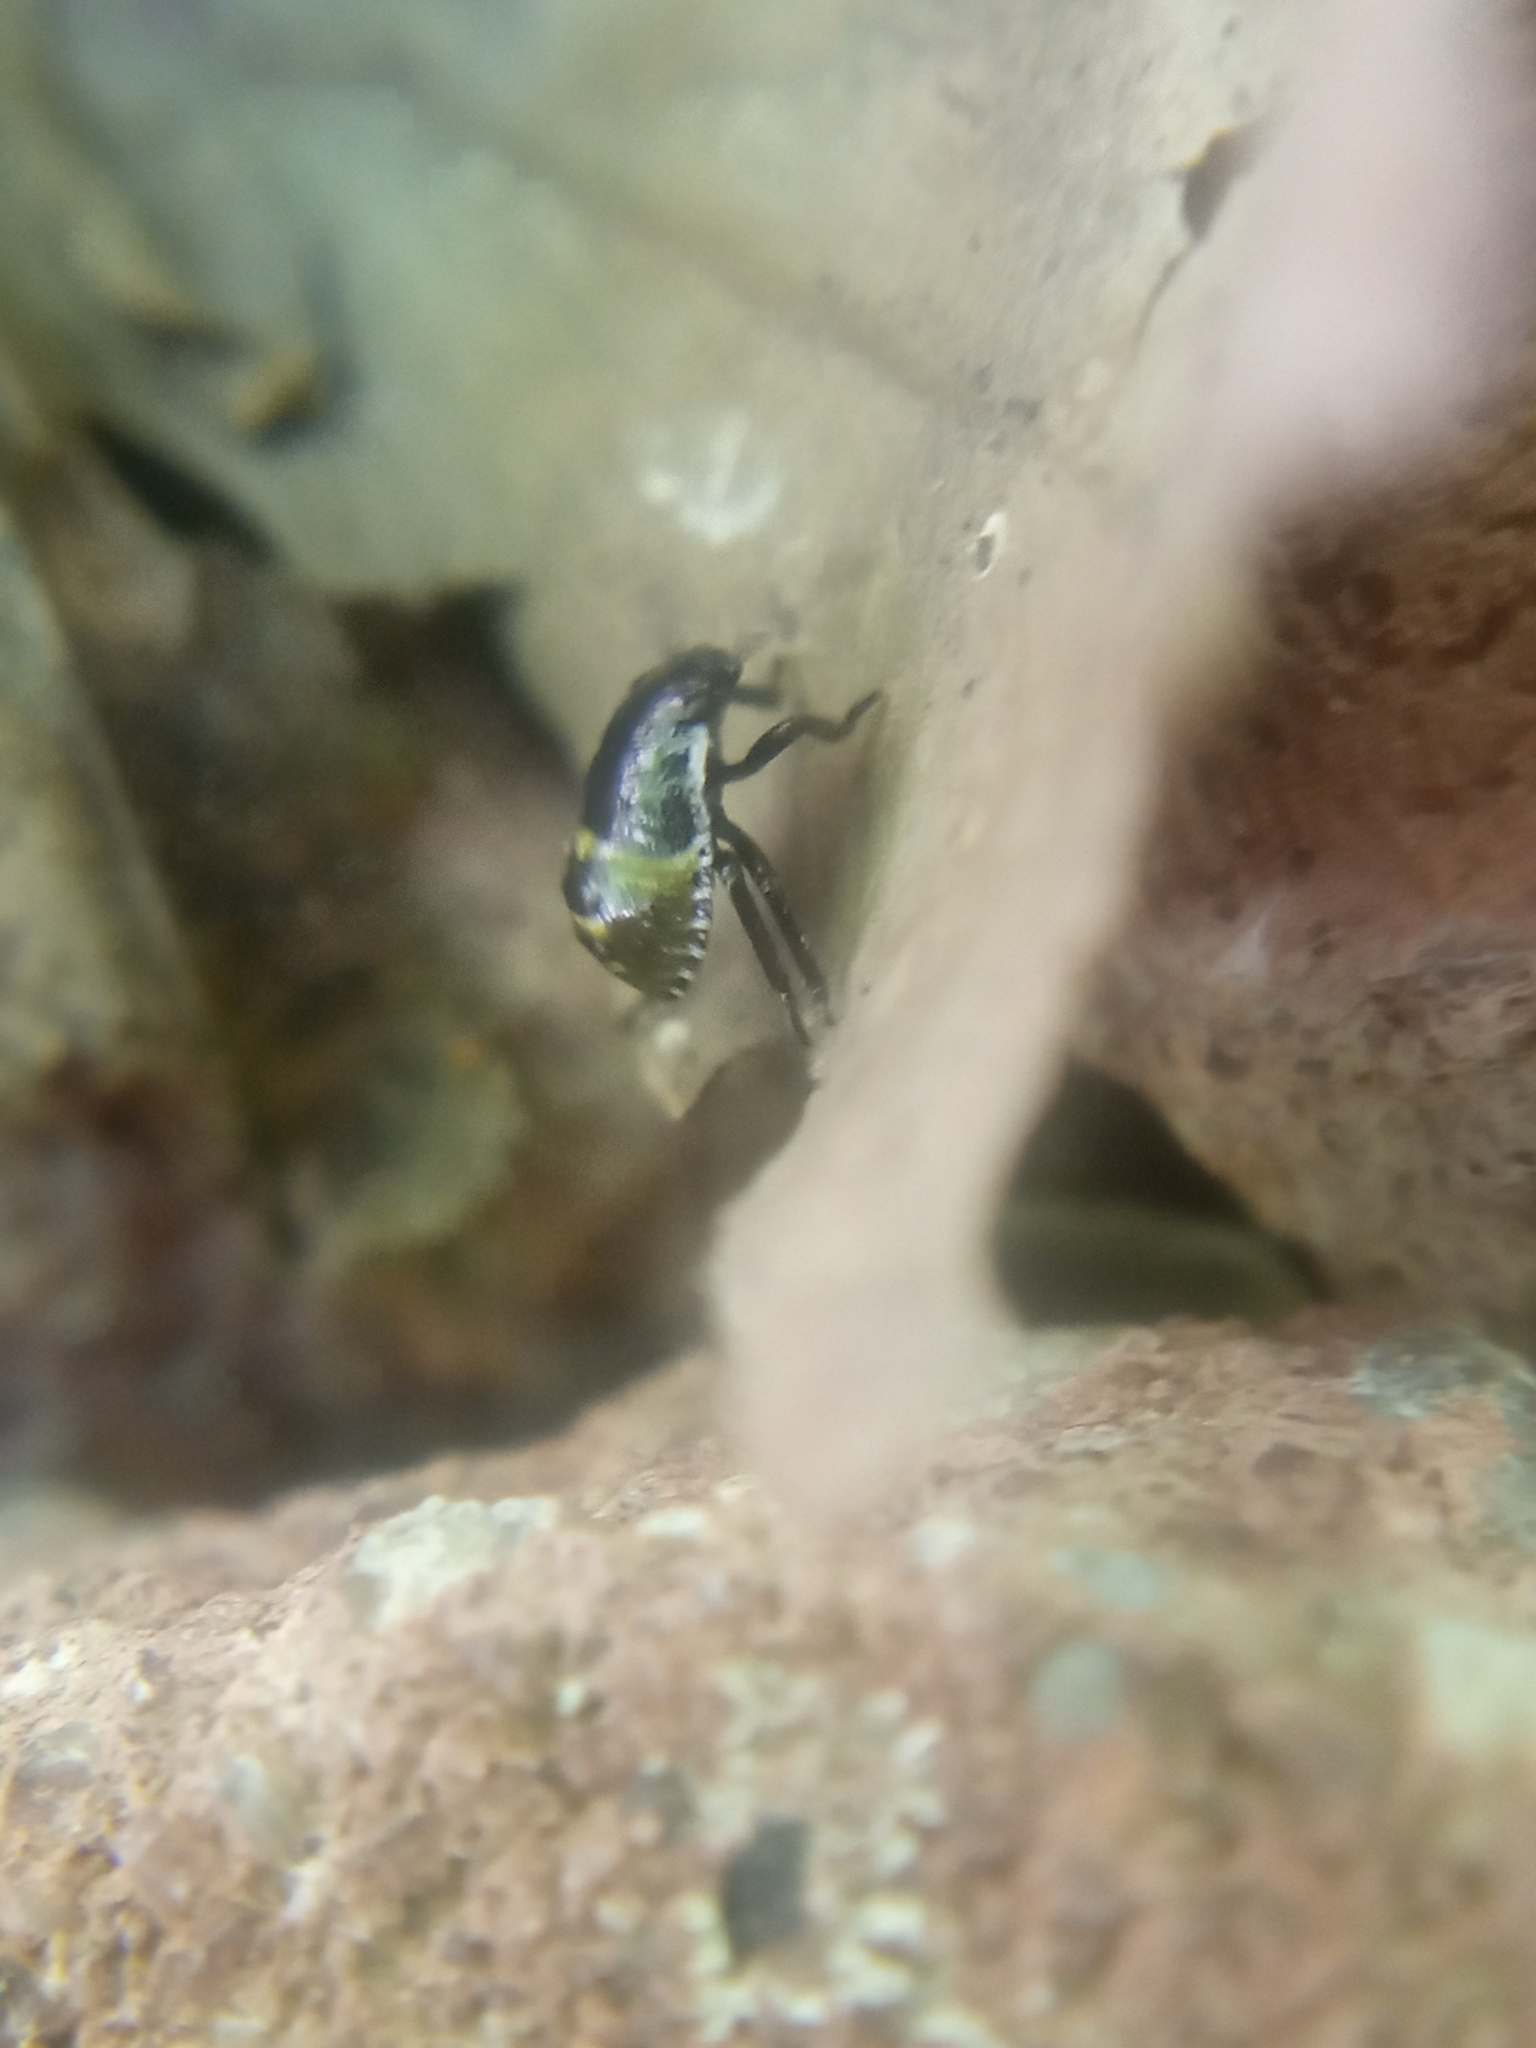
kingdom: Animalia
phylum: Arthropoda
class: Insecta
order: Hemiptera
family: Pentatomidae
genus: Palomena
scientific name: Palomena prasina
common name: Green shieldbug
